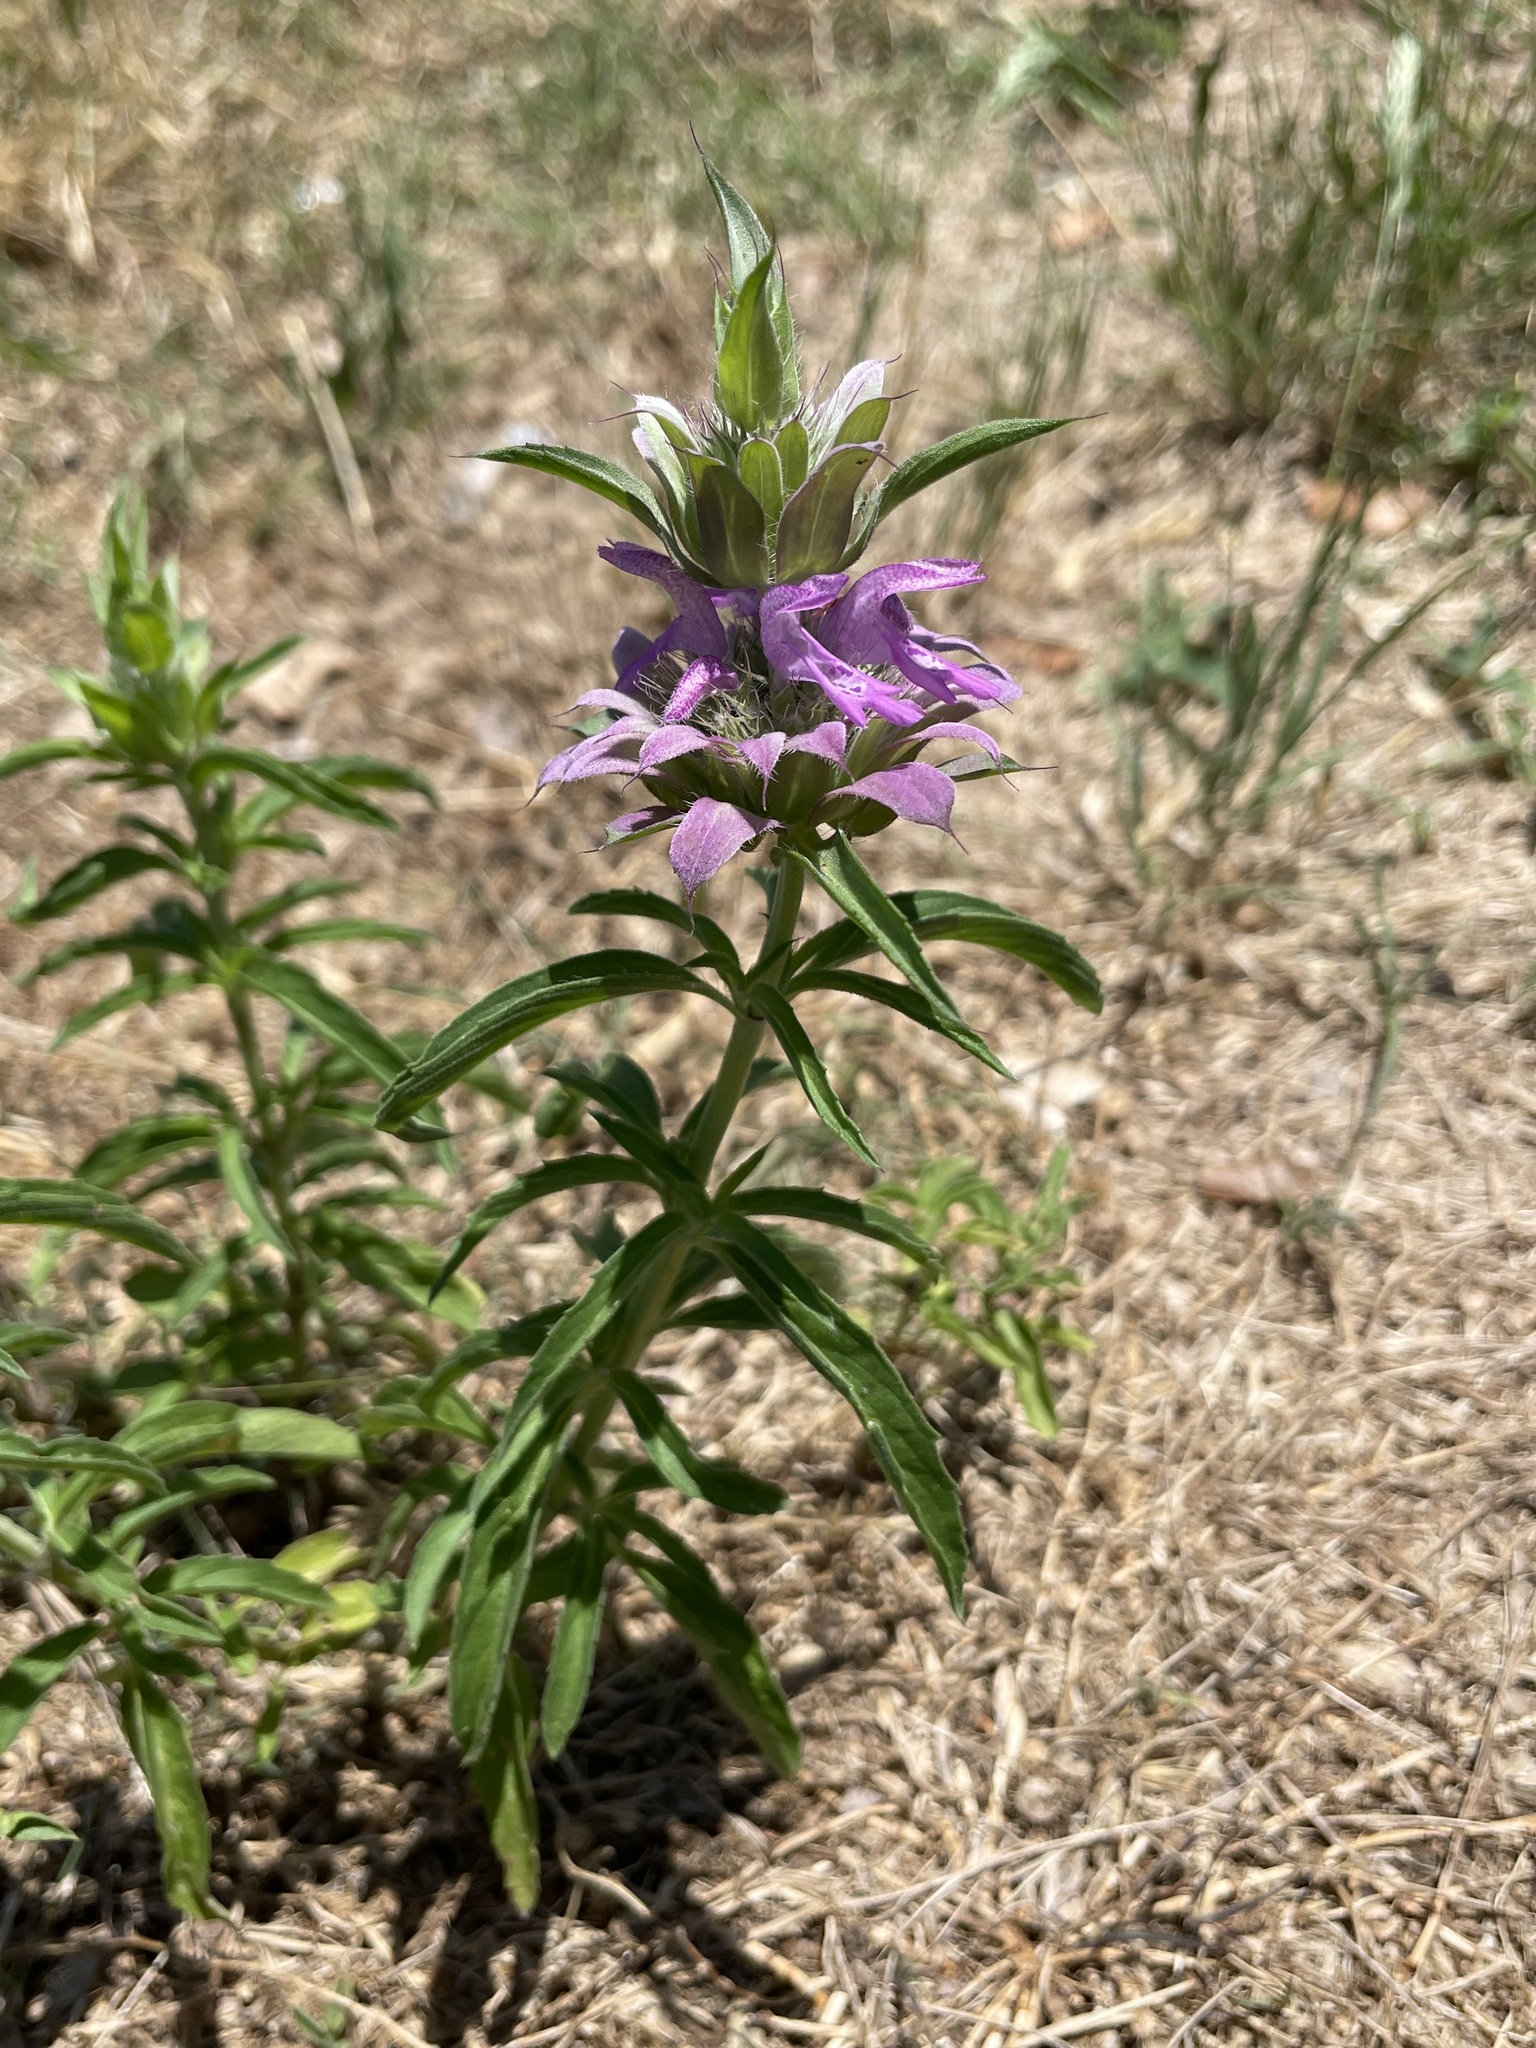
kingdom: Plantae
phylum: Tracheophyta
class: Magnoliopsida
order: Lamiales
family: Lamiaceae
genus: Monarda
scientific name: Monarda citriodora
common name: Lemon beebalm
